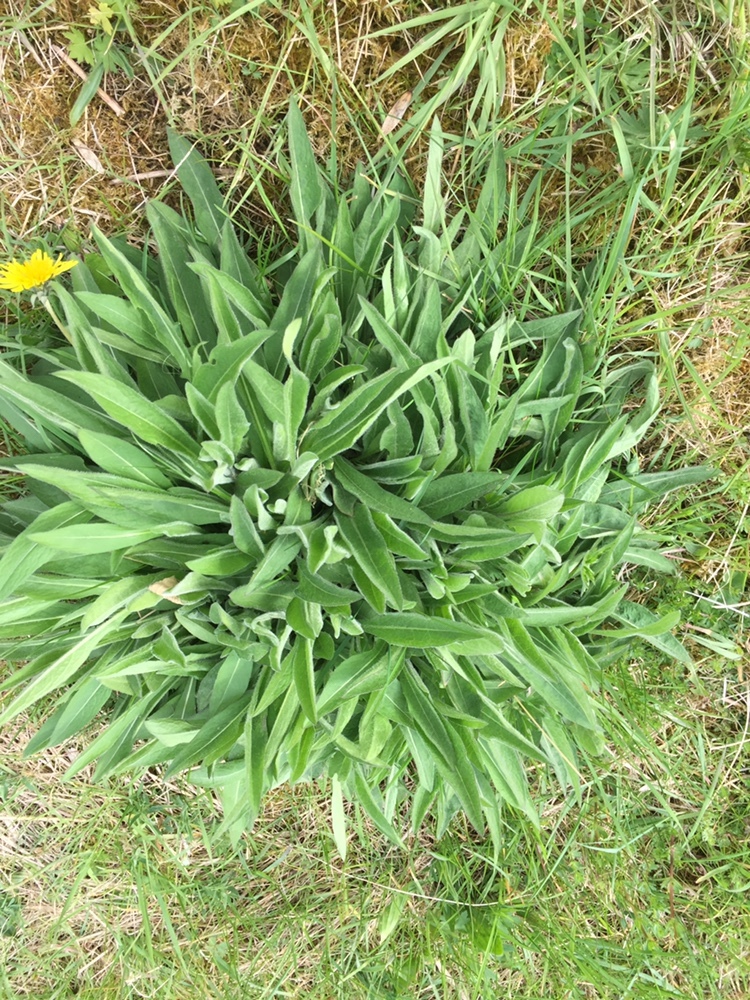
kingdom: Plantae
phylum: Tracheophyta
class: Magnoliopsida
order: Asterales
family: Asteraceae
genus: Centaurea
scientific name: Centaurea nigra
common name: Lesser knapweed
